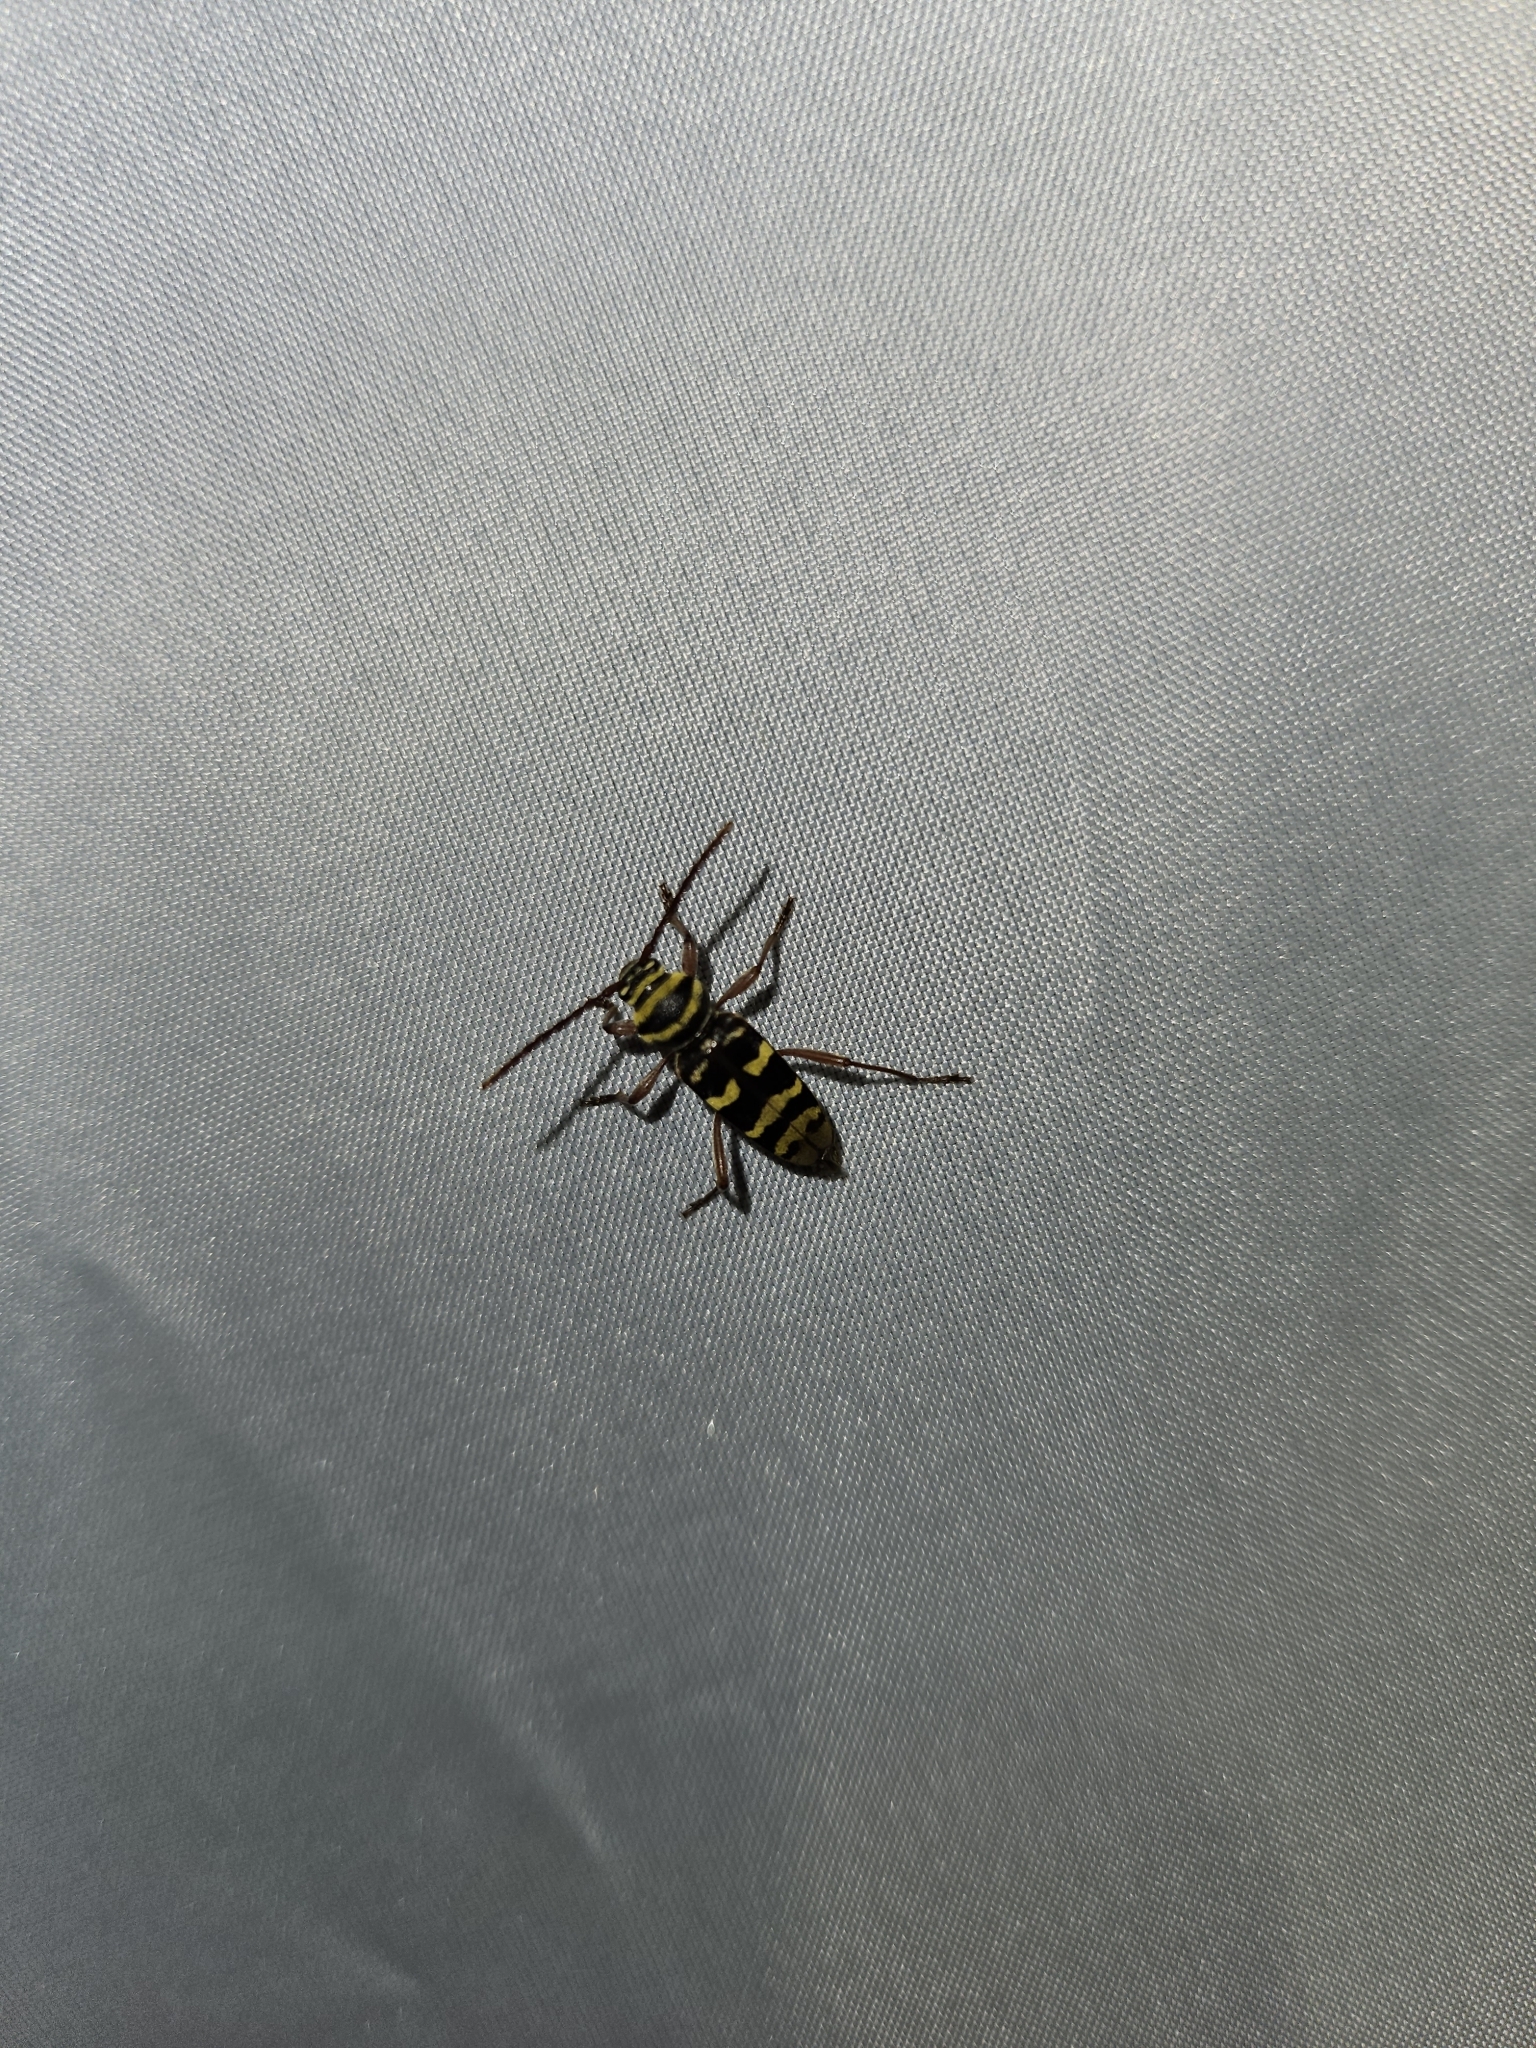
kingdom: Animalia
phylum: Arthropoda
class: Insecta
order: Coleoptera
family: Cerambycidae
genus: Plagionotus
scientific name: Plagionotus detritus
